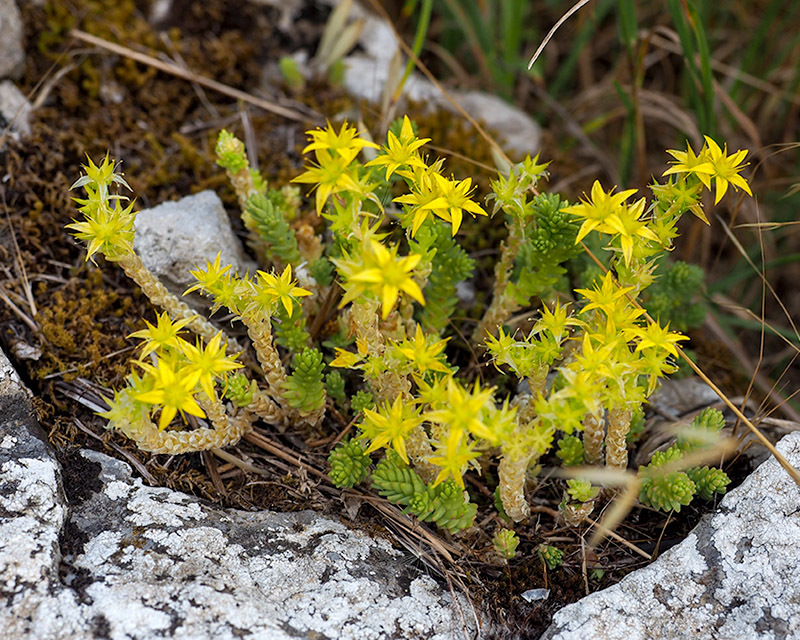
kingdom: Plantae
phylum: Tracheophyta
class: Magnoliopsida
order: Saxifragales
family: Crassulaceae
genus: Sedum
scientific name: Sedum acre
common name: Biting stonecrop
